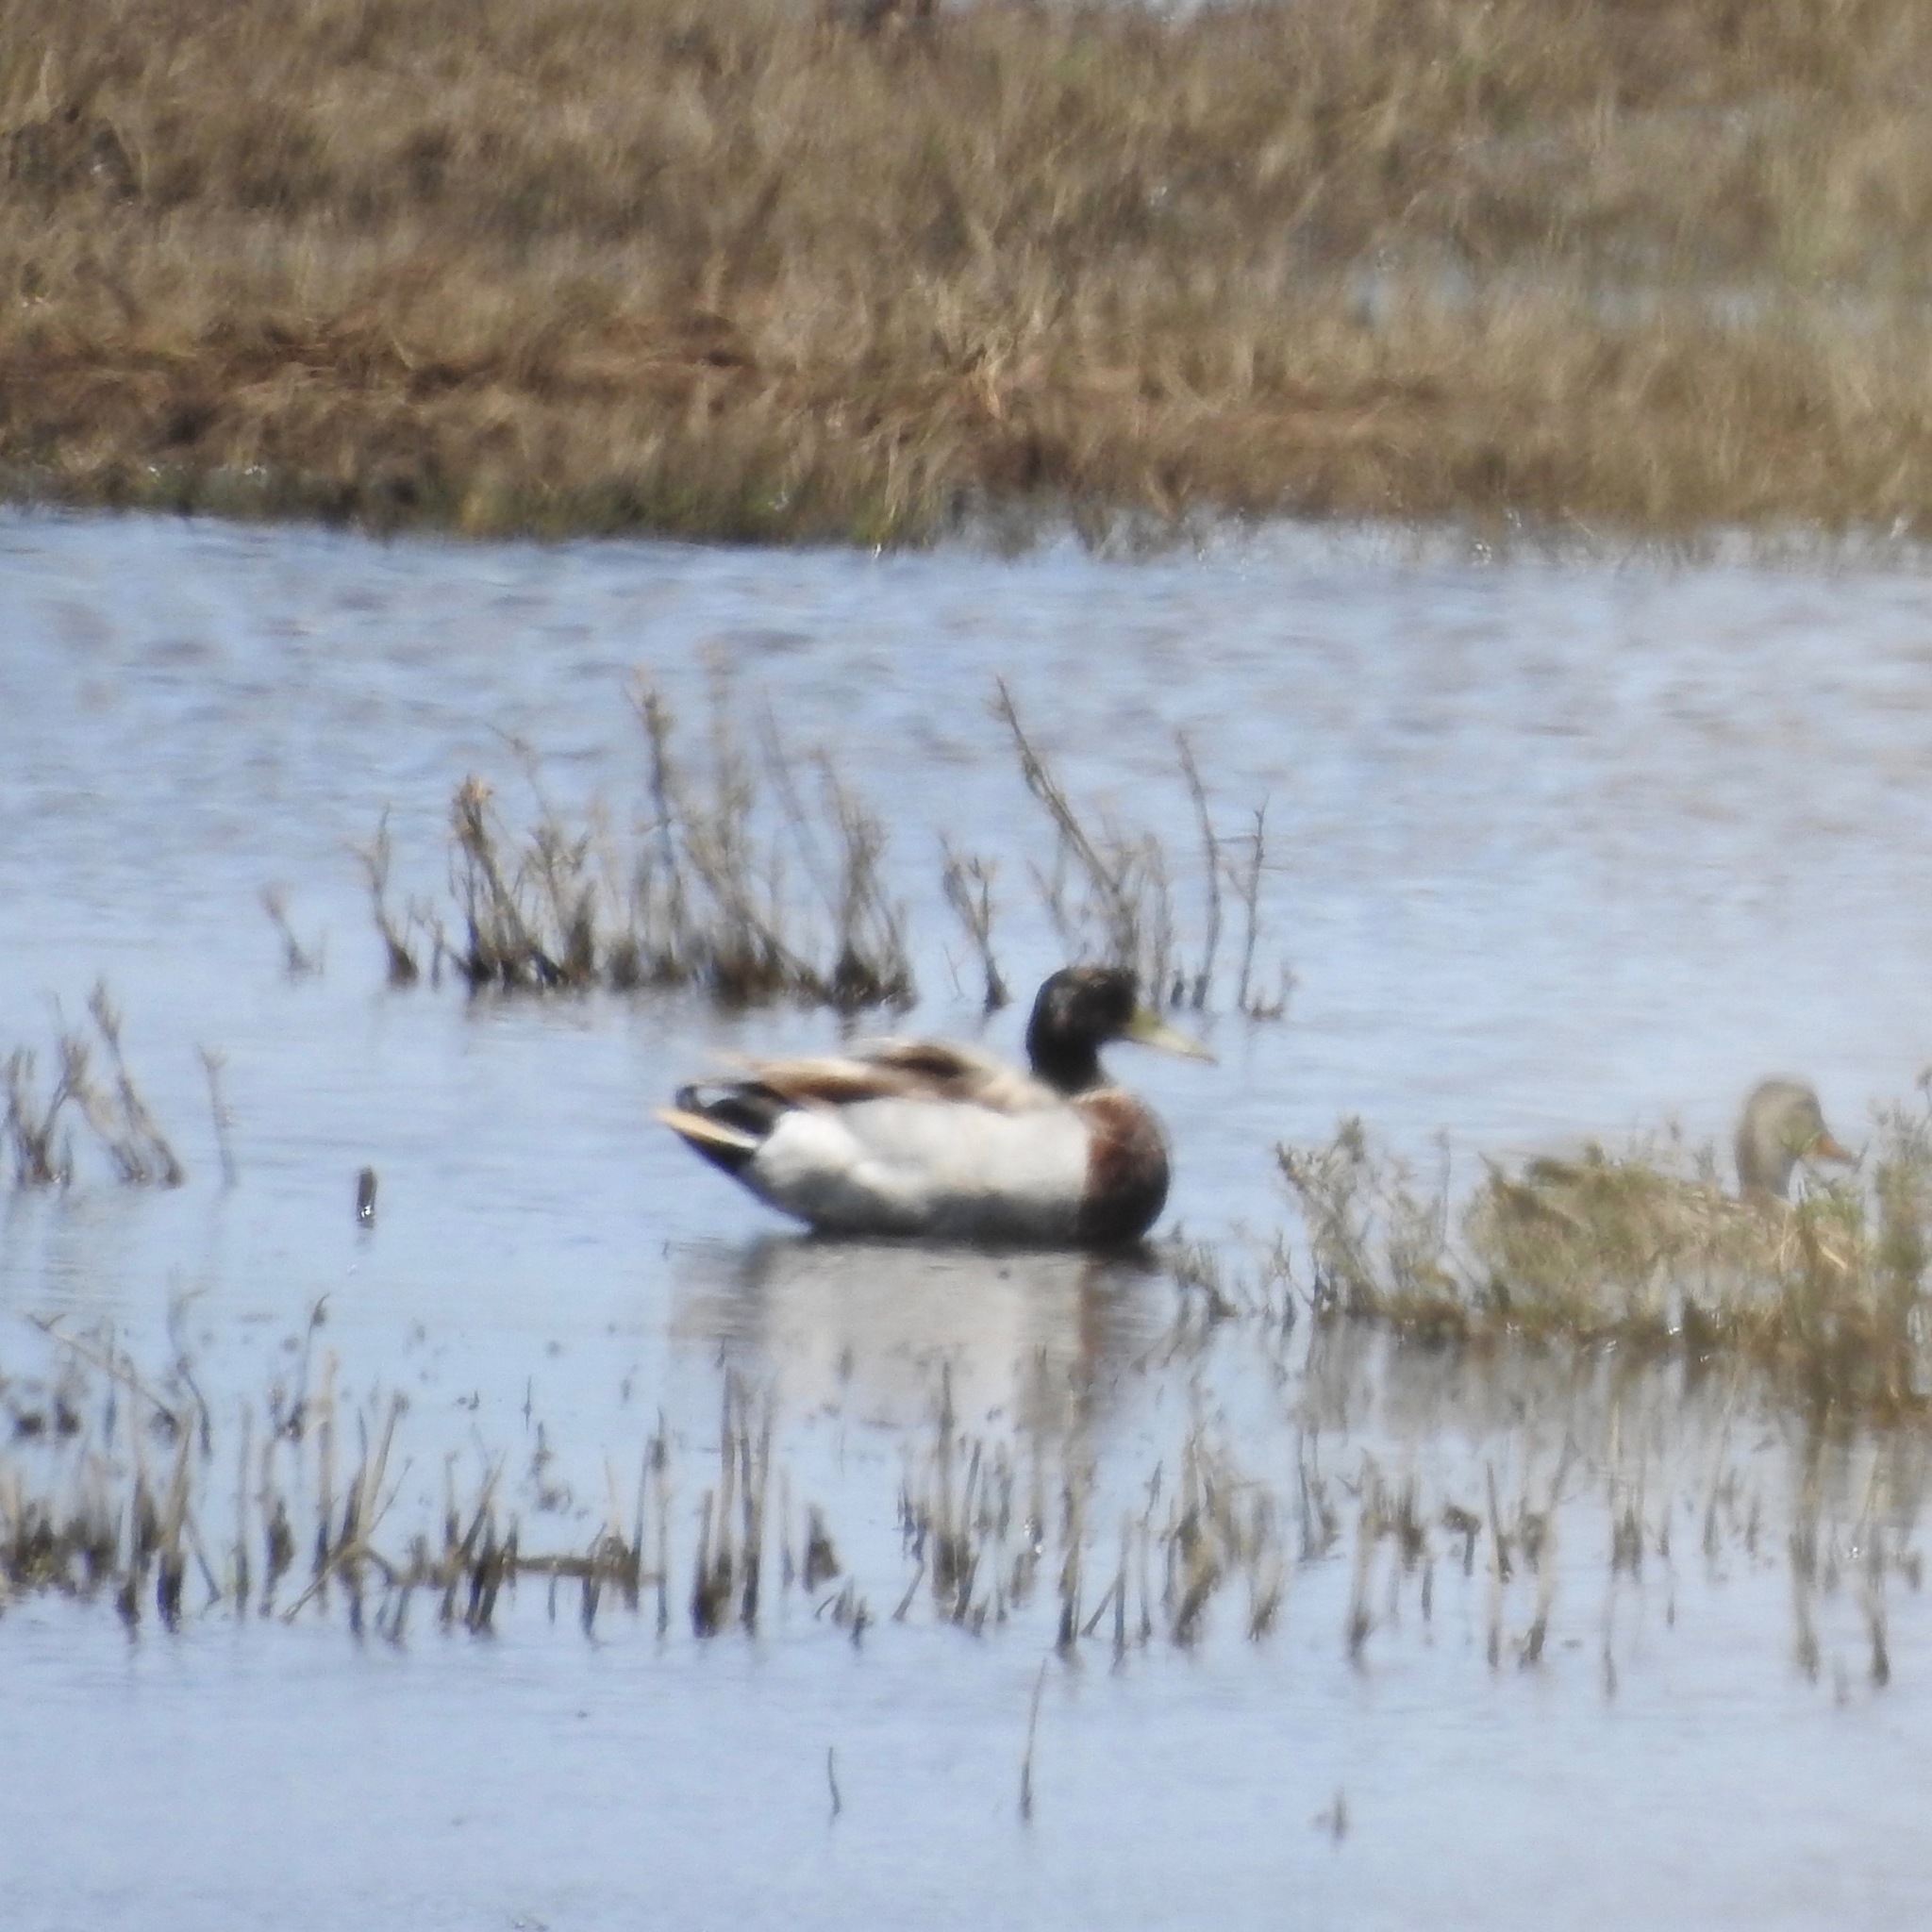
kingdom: Animalia
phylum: Chordata
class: Aves
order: Anseriformes
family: Anatidae
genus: Anas
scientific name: Anas platyrhynchos
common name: Mallard
